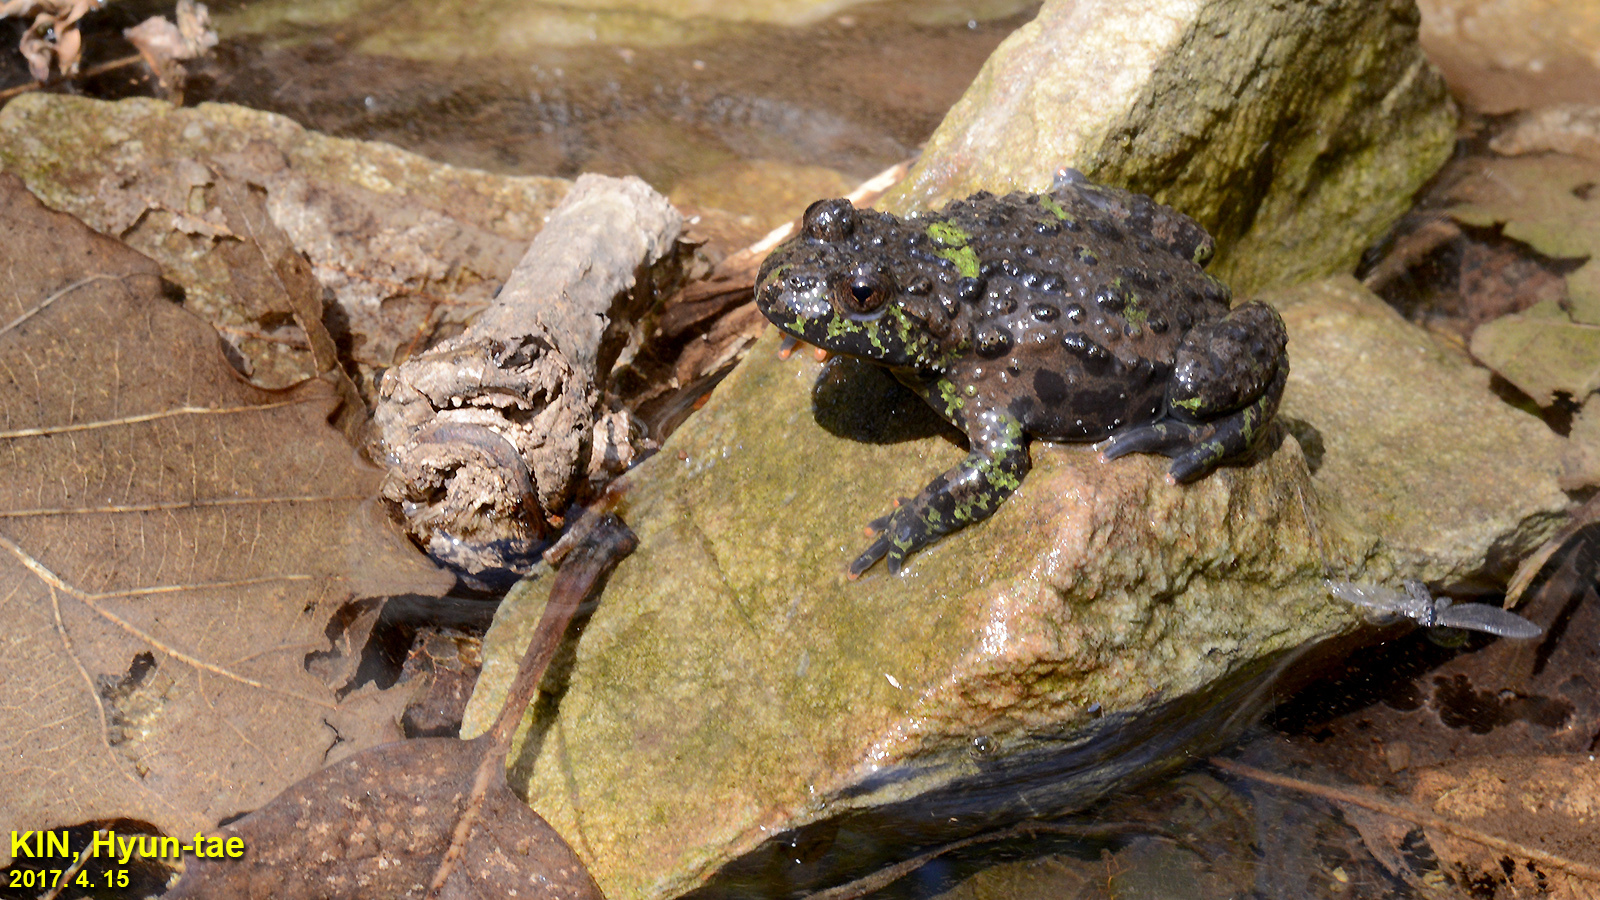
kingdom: Animalia
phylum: Chordata
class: Amphibia
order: Anura
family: Bombinatoridae
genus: Bombina
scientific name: Bombina orientalis
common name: Oriental firebelly toad
